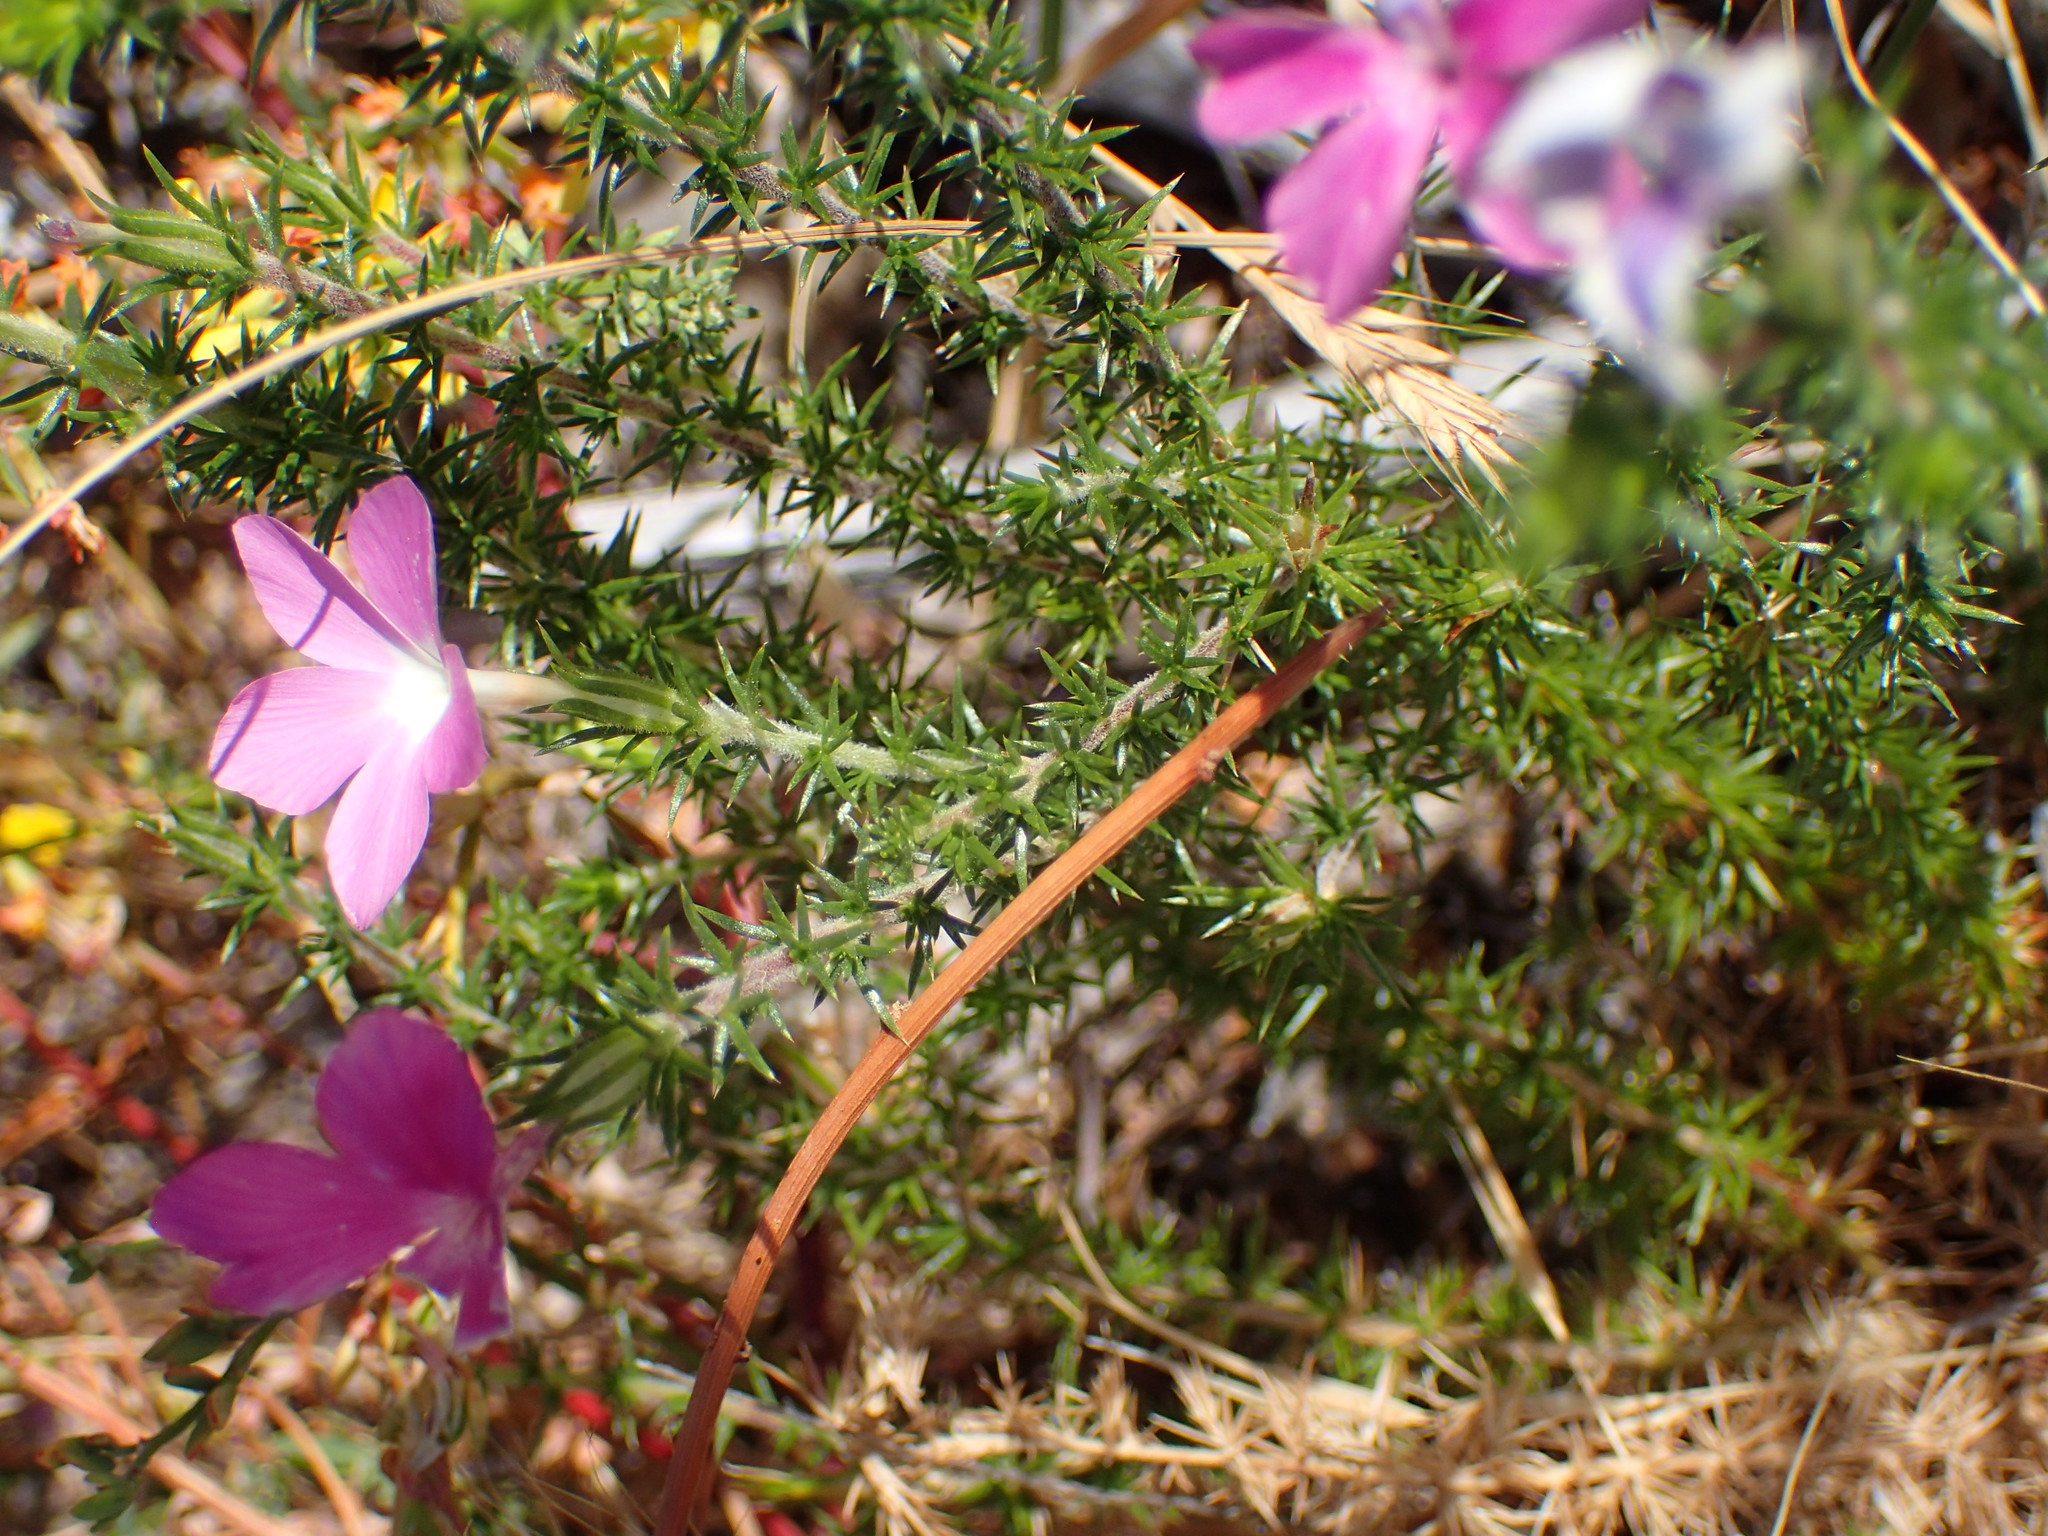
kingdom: Plantae
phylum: Tracheophyta
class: Magnoliopsida
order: Ericales
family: Polemoniaceae
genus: Linanthus
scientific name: Linanthus californicus
